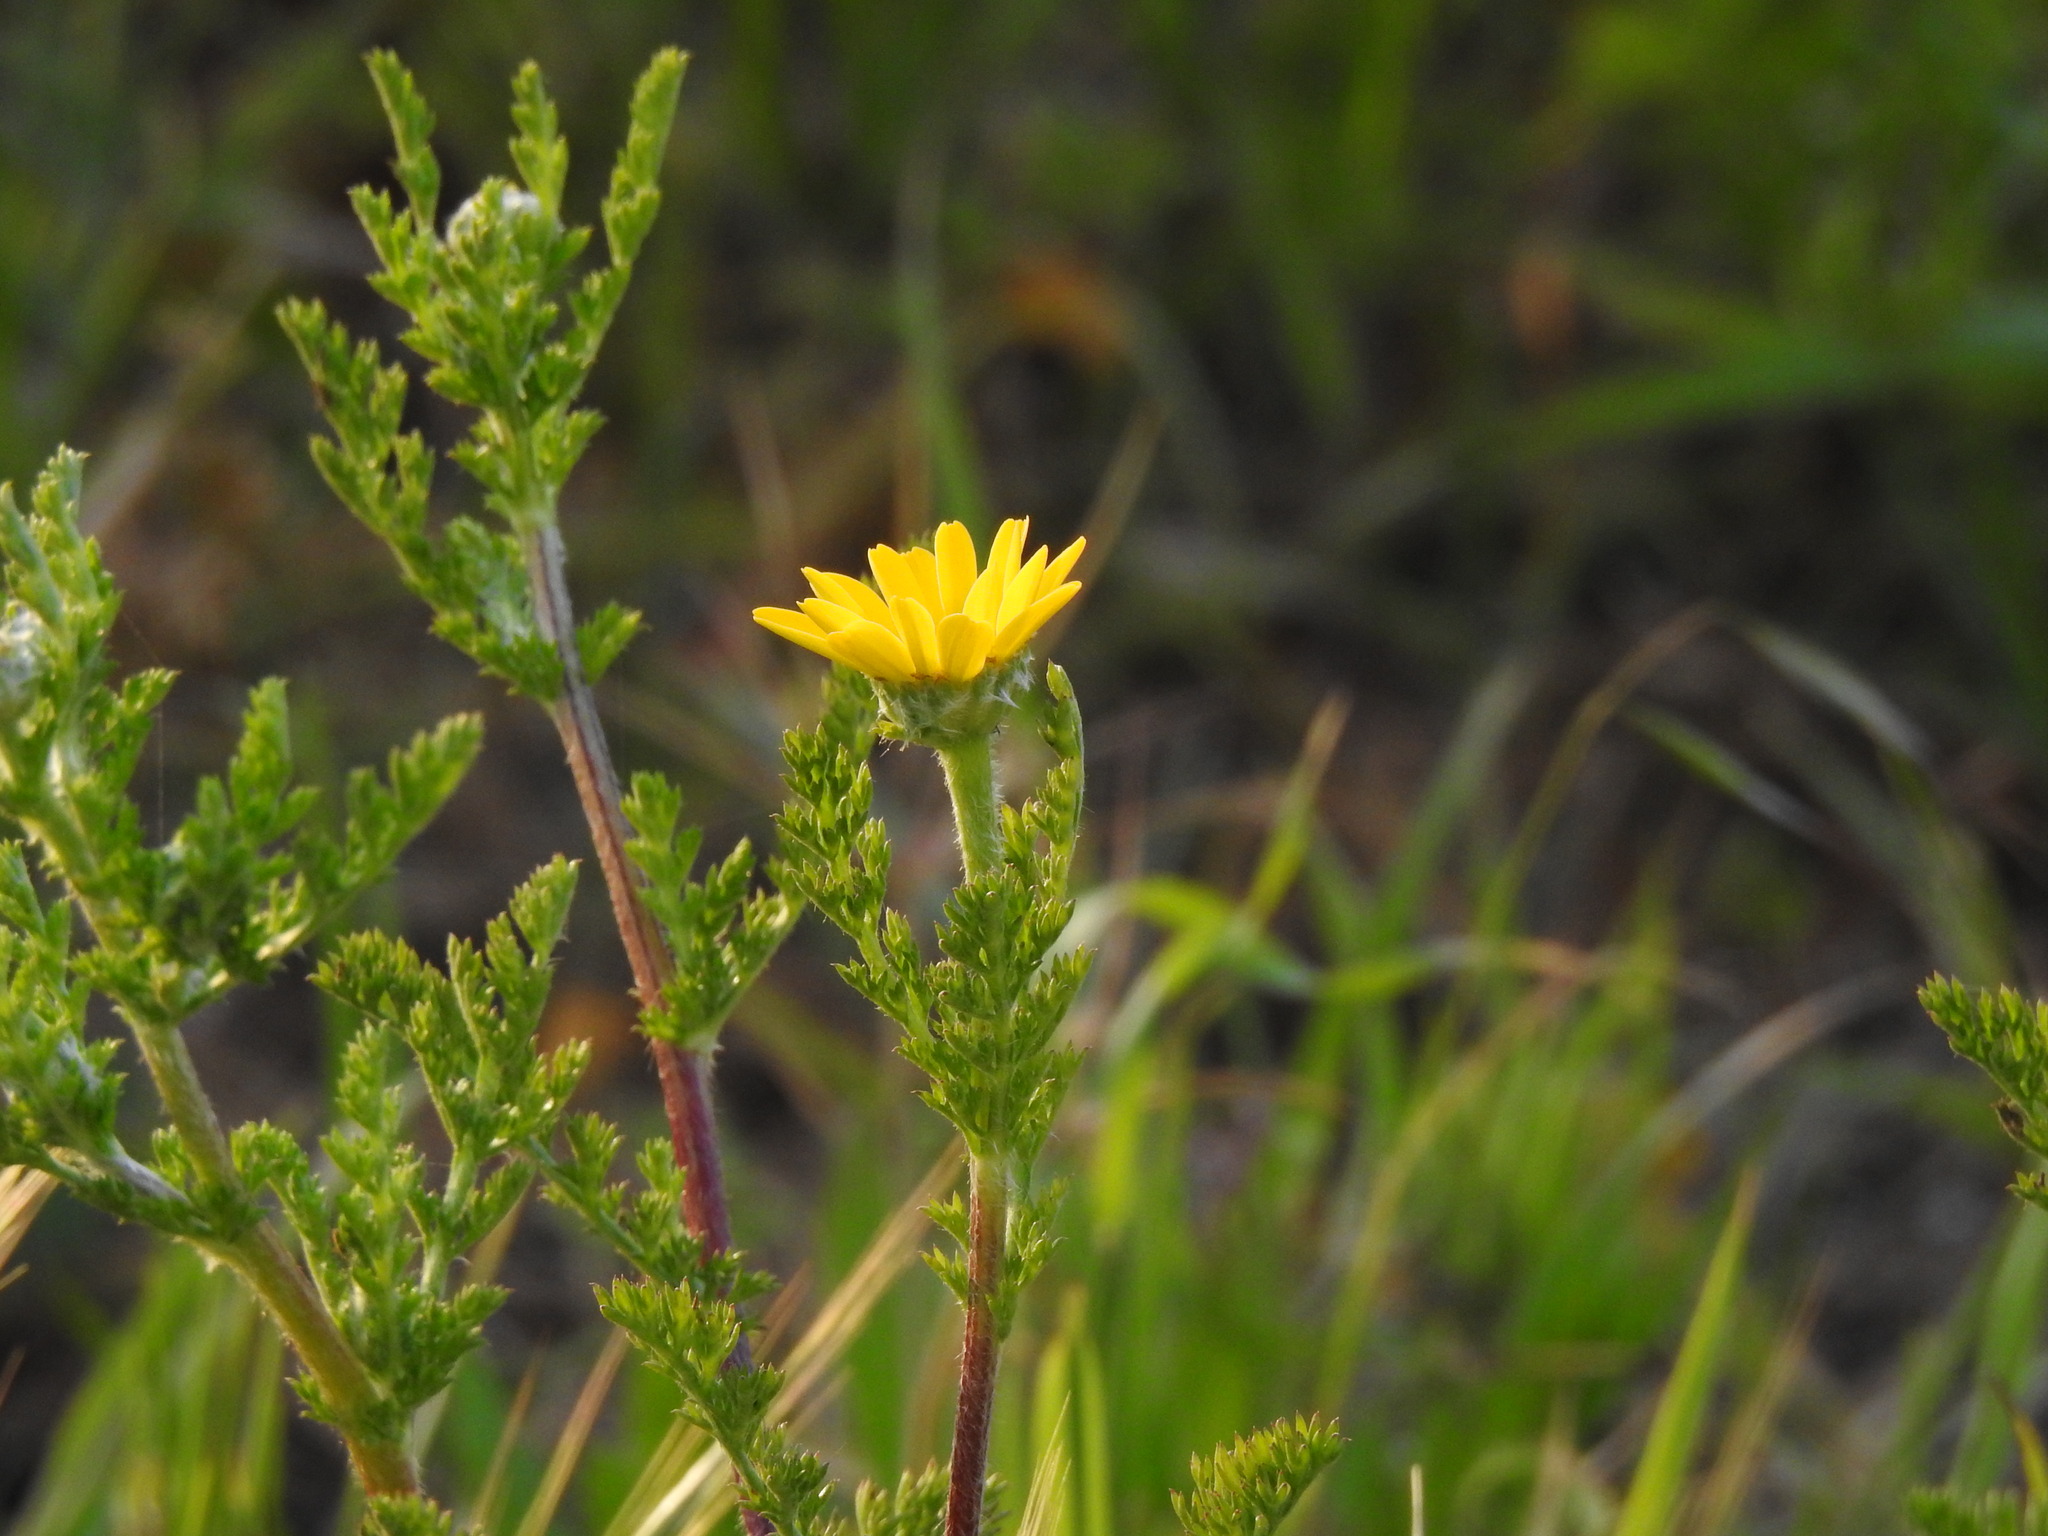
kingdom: Plantae
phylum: Tracheophyta
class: Magnoliopsida
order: Asterales
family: Asteraceae
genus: Anacyclus
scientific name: Anacyclus radiatus
